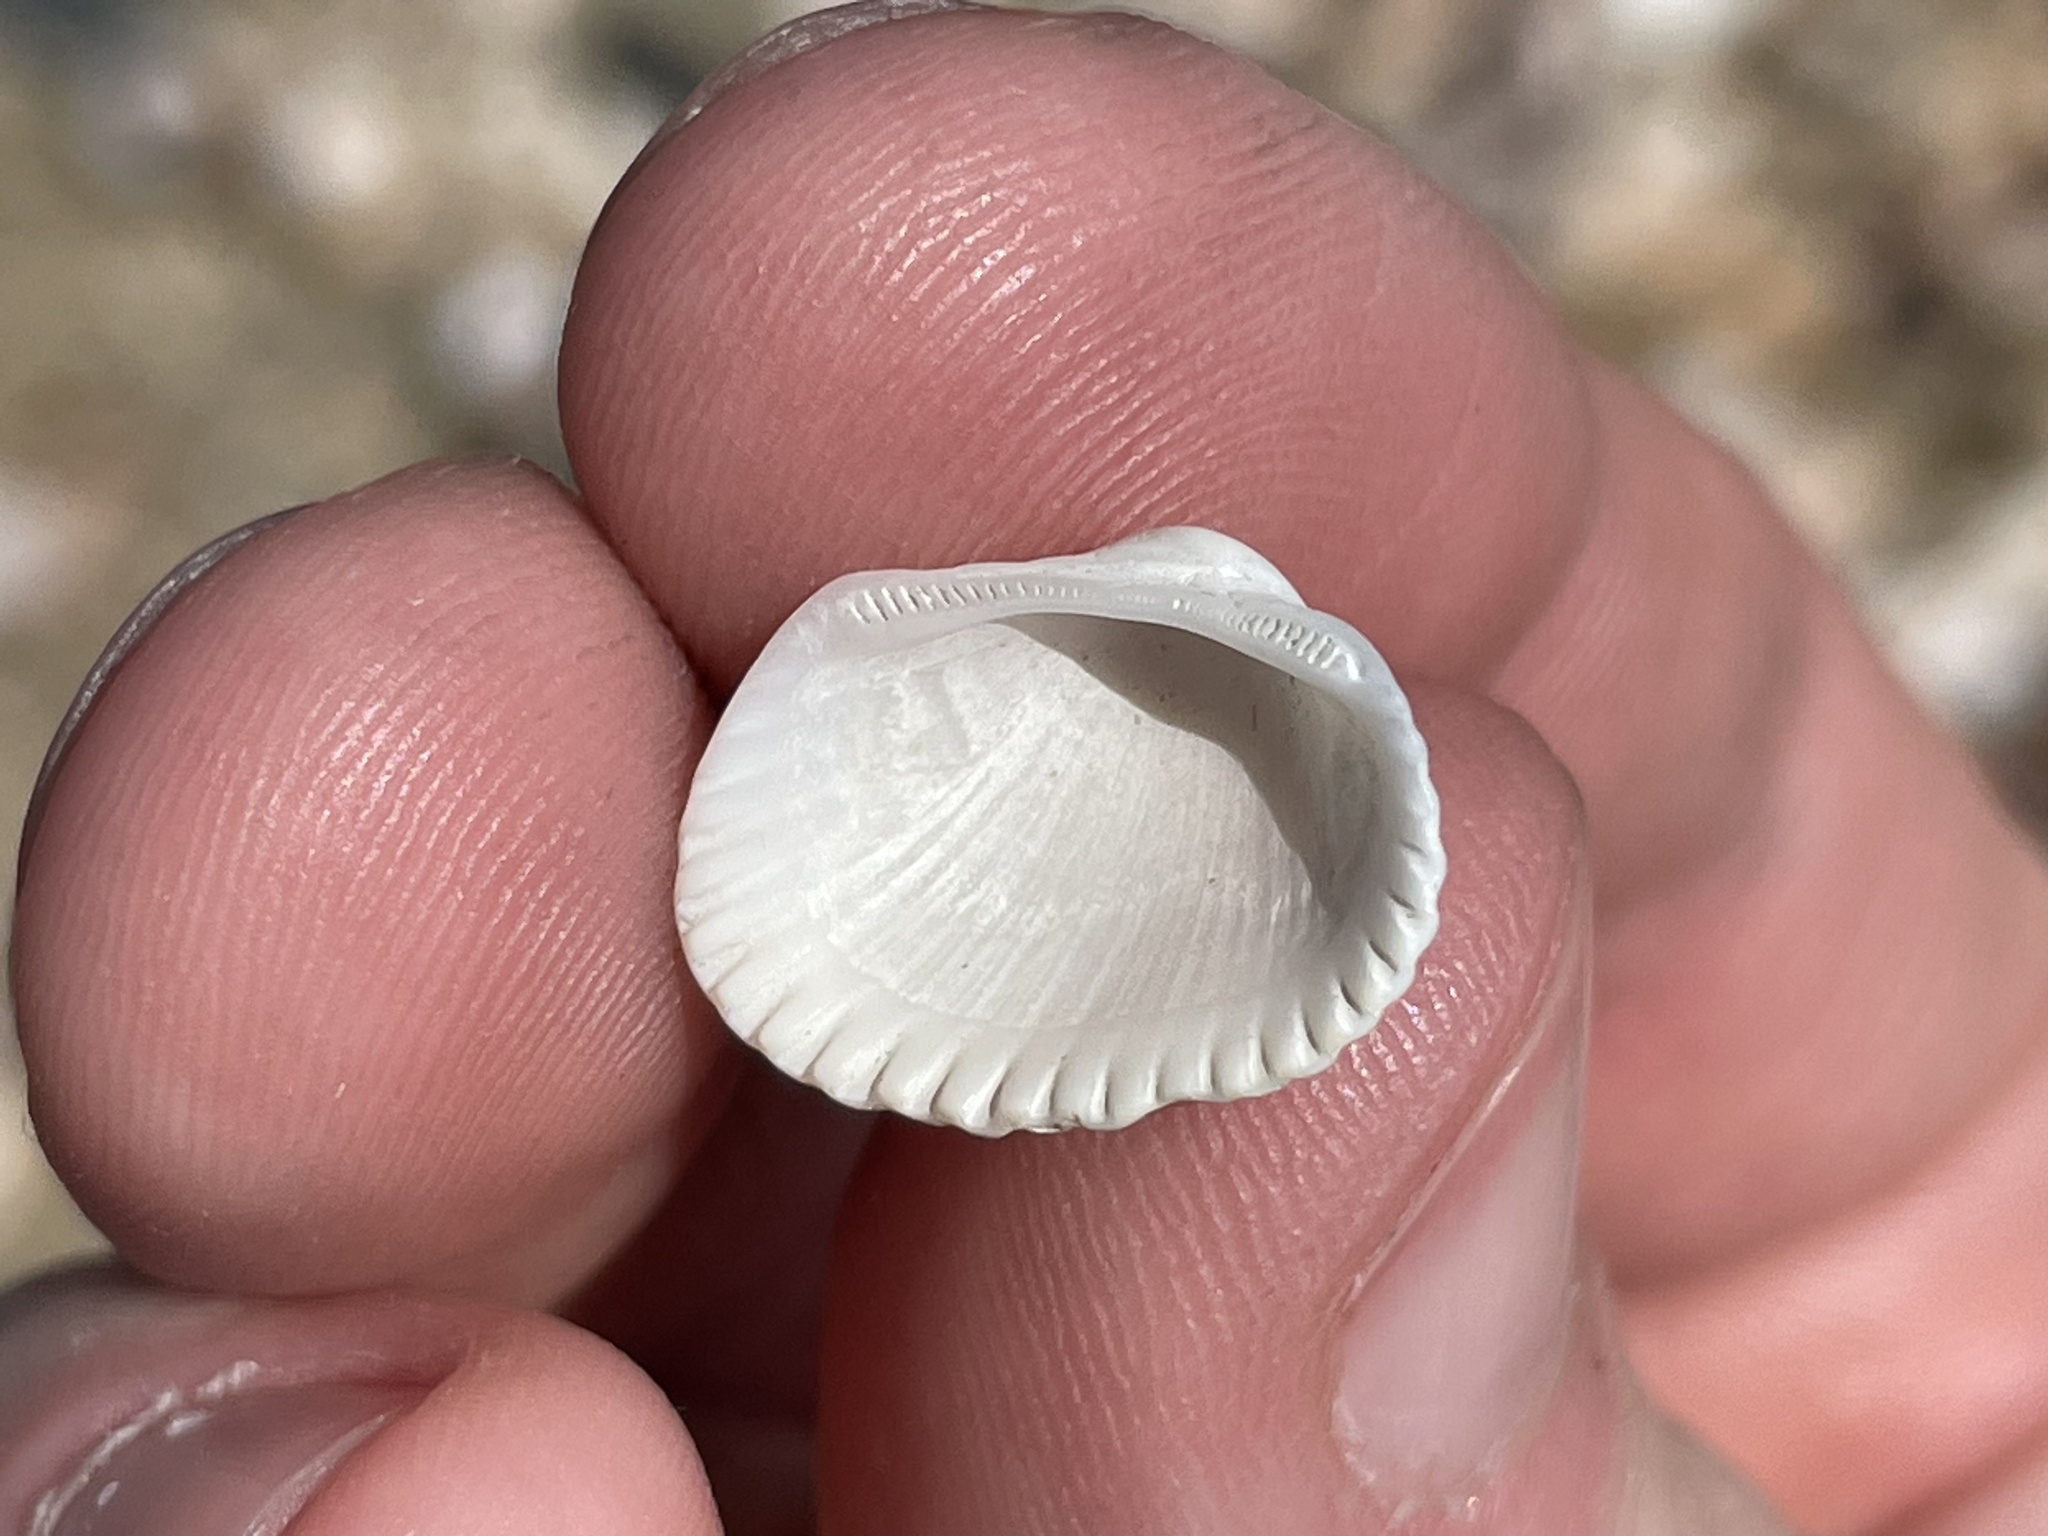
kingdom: Animalia
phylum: Mollusca
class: Bivalvia
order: Arcida
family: Arcidae
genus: Anadara
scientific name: Anadara transversa
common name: Transverse ark
